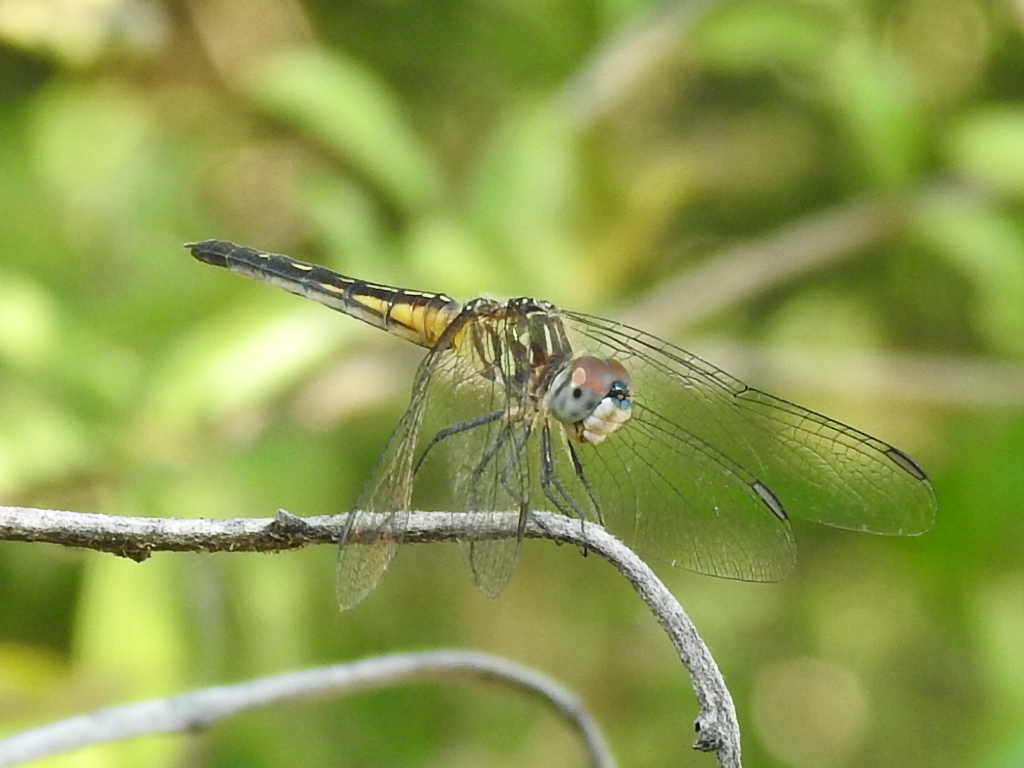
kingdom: Animalia
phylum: Arthropoda
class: Insecta
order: Odonata
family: Libellulidae
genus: Pachydiplax
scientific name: Pachydiplax longipennis
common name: Blue dasher
